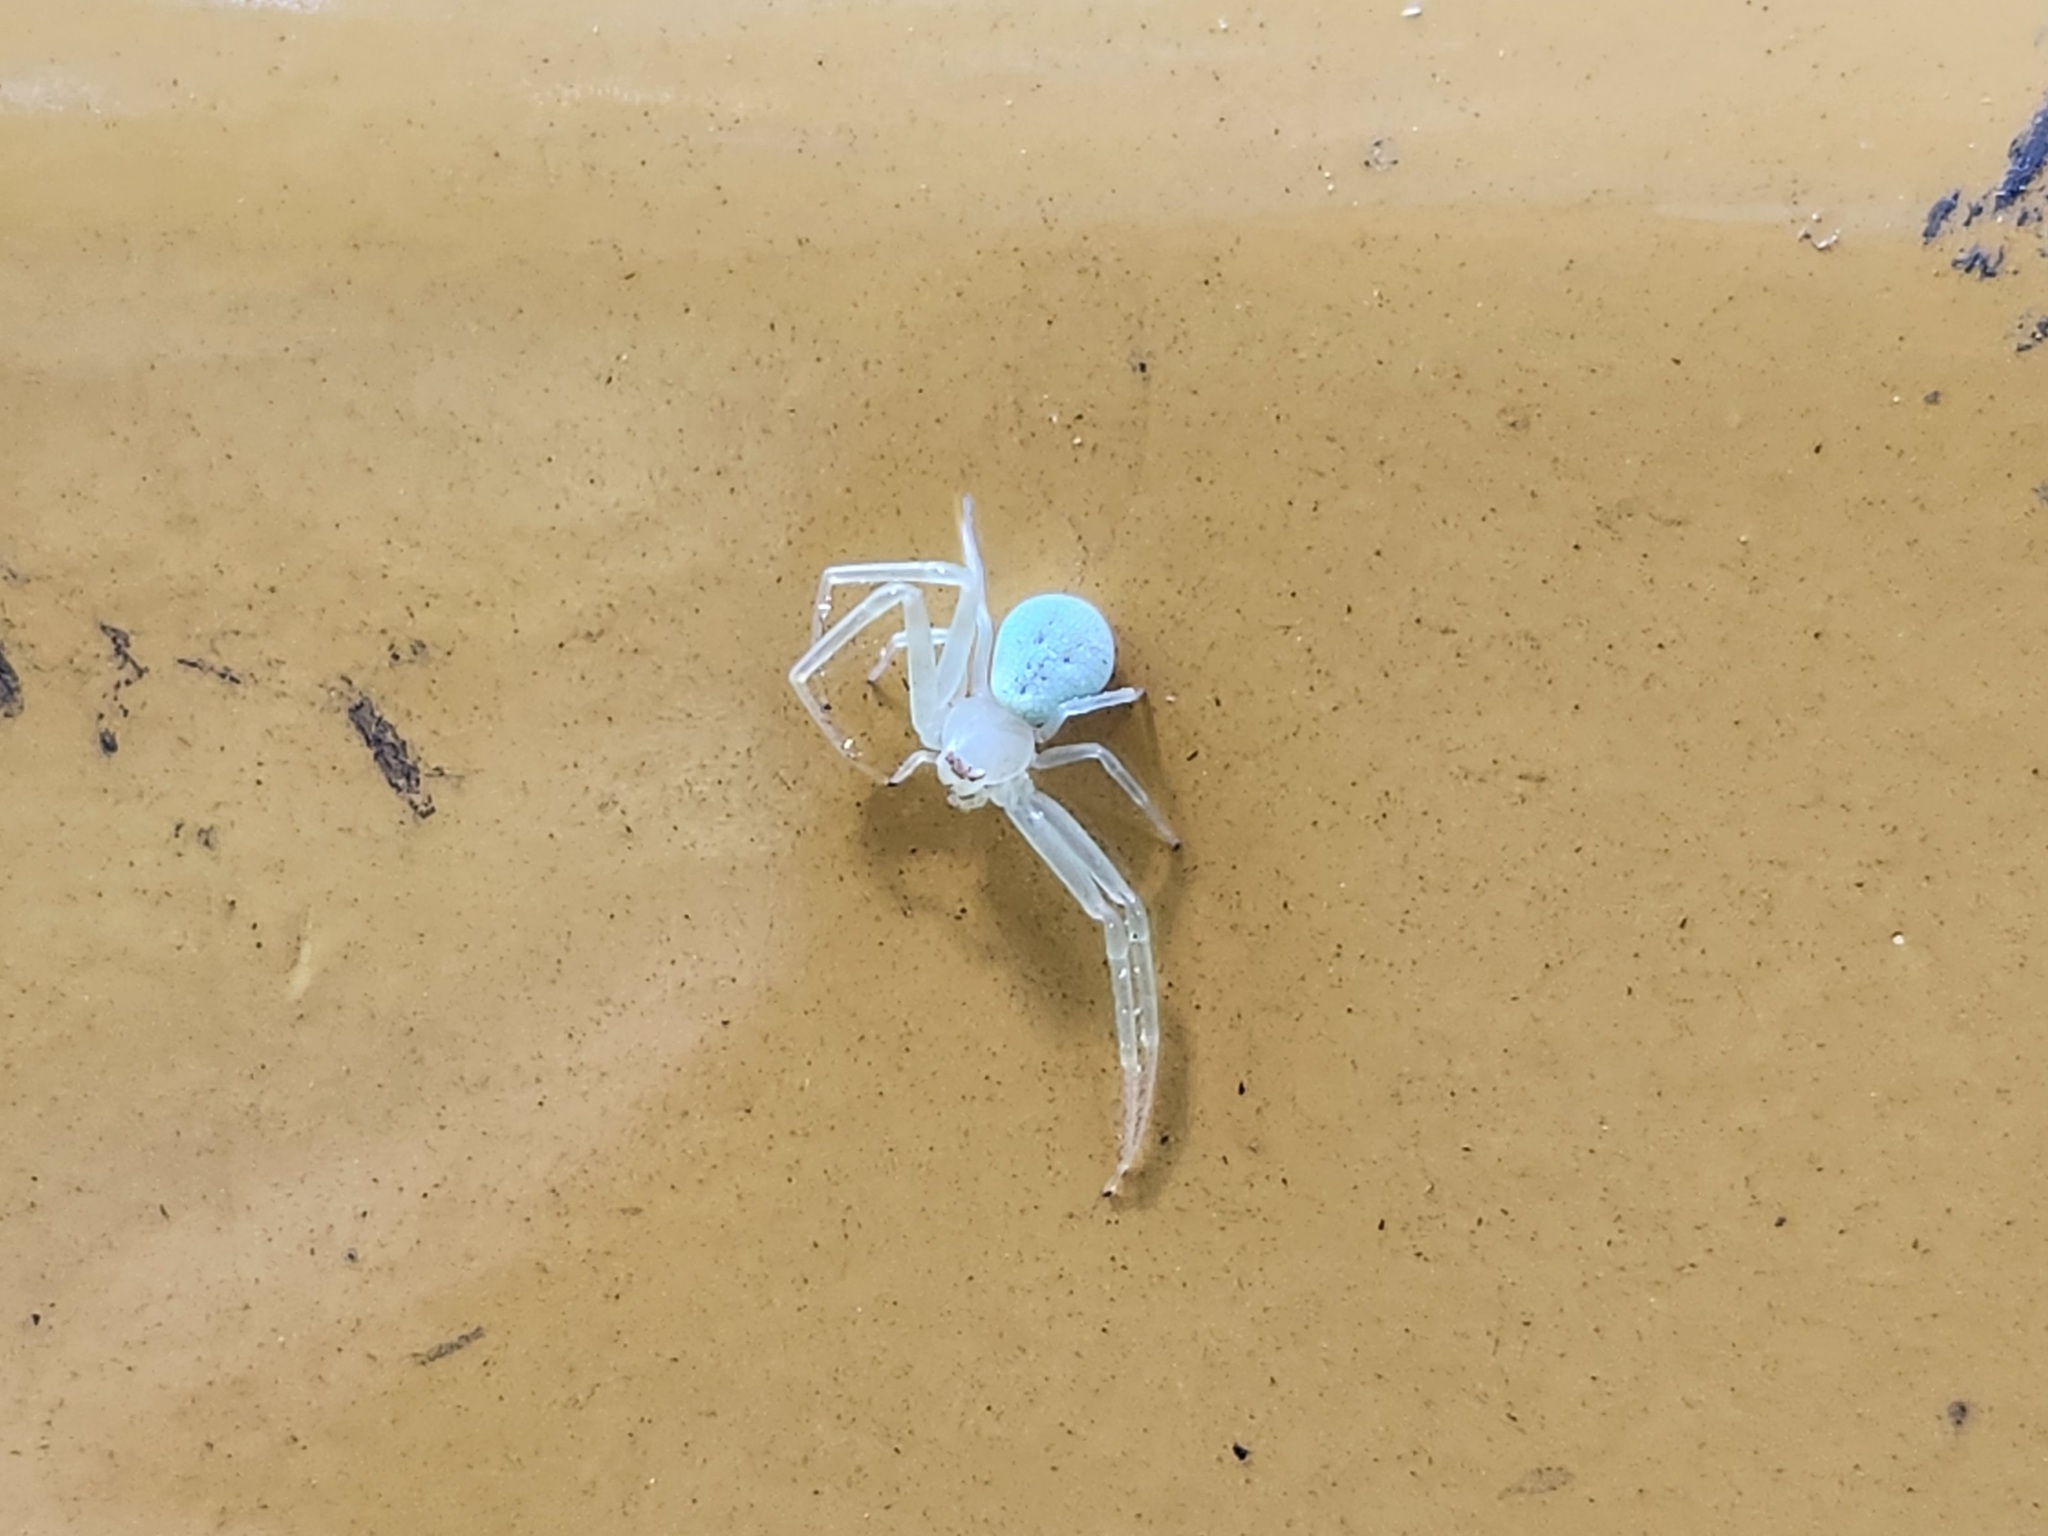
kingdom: Animalia
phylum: Arthropoda
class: Arachnida
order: Araneae
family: Thomisidae
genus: Misumessus
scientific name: Misumessus oblongus
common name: American green crab spider
